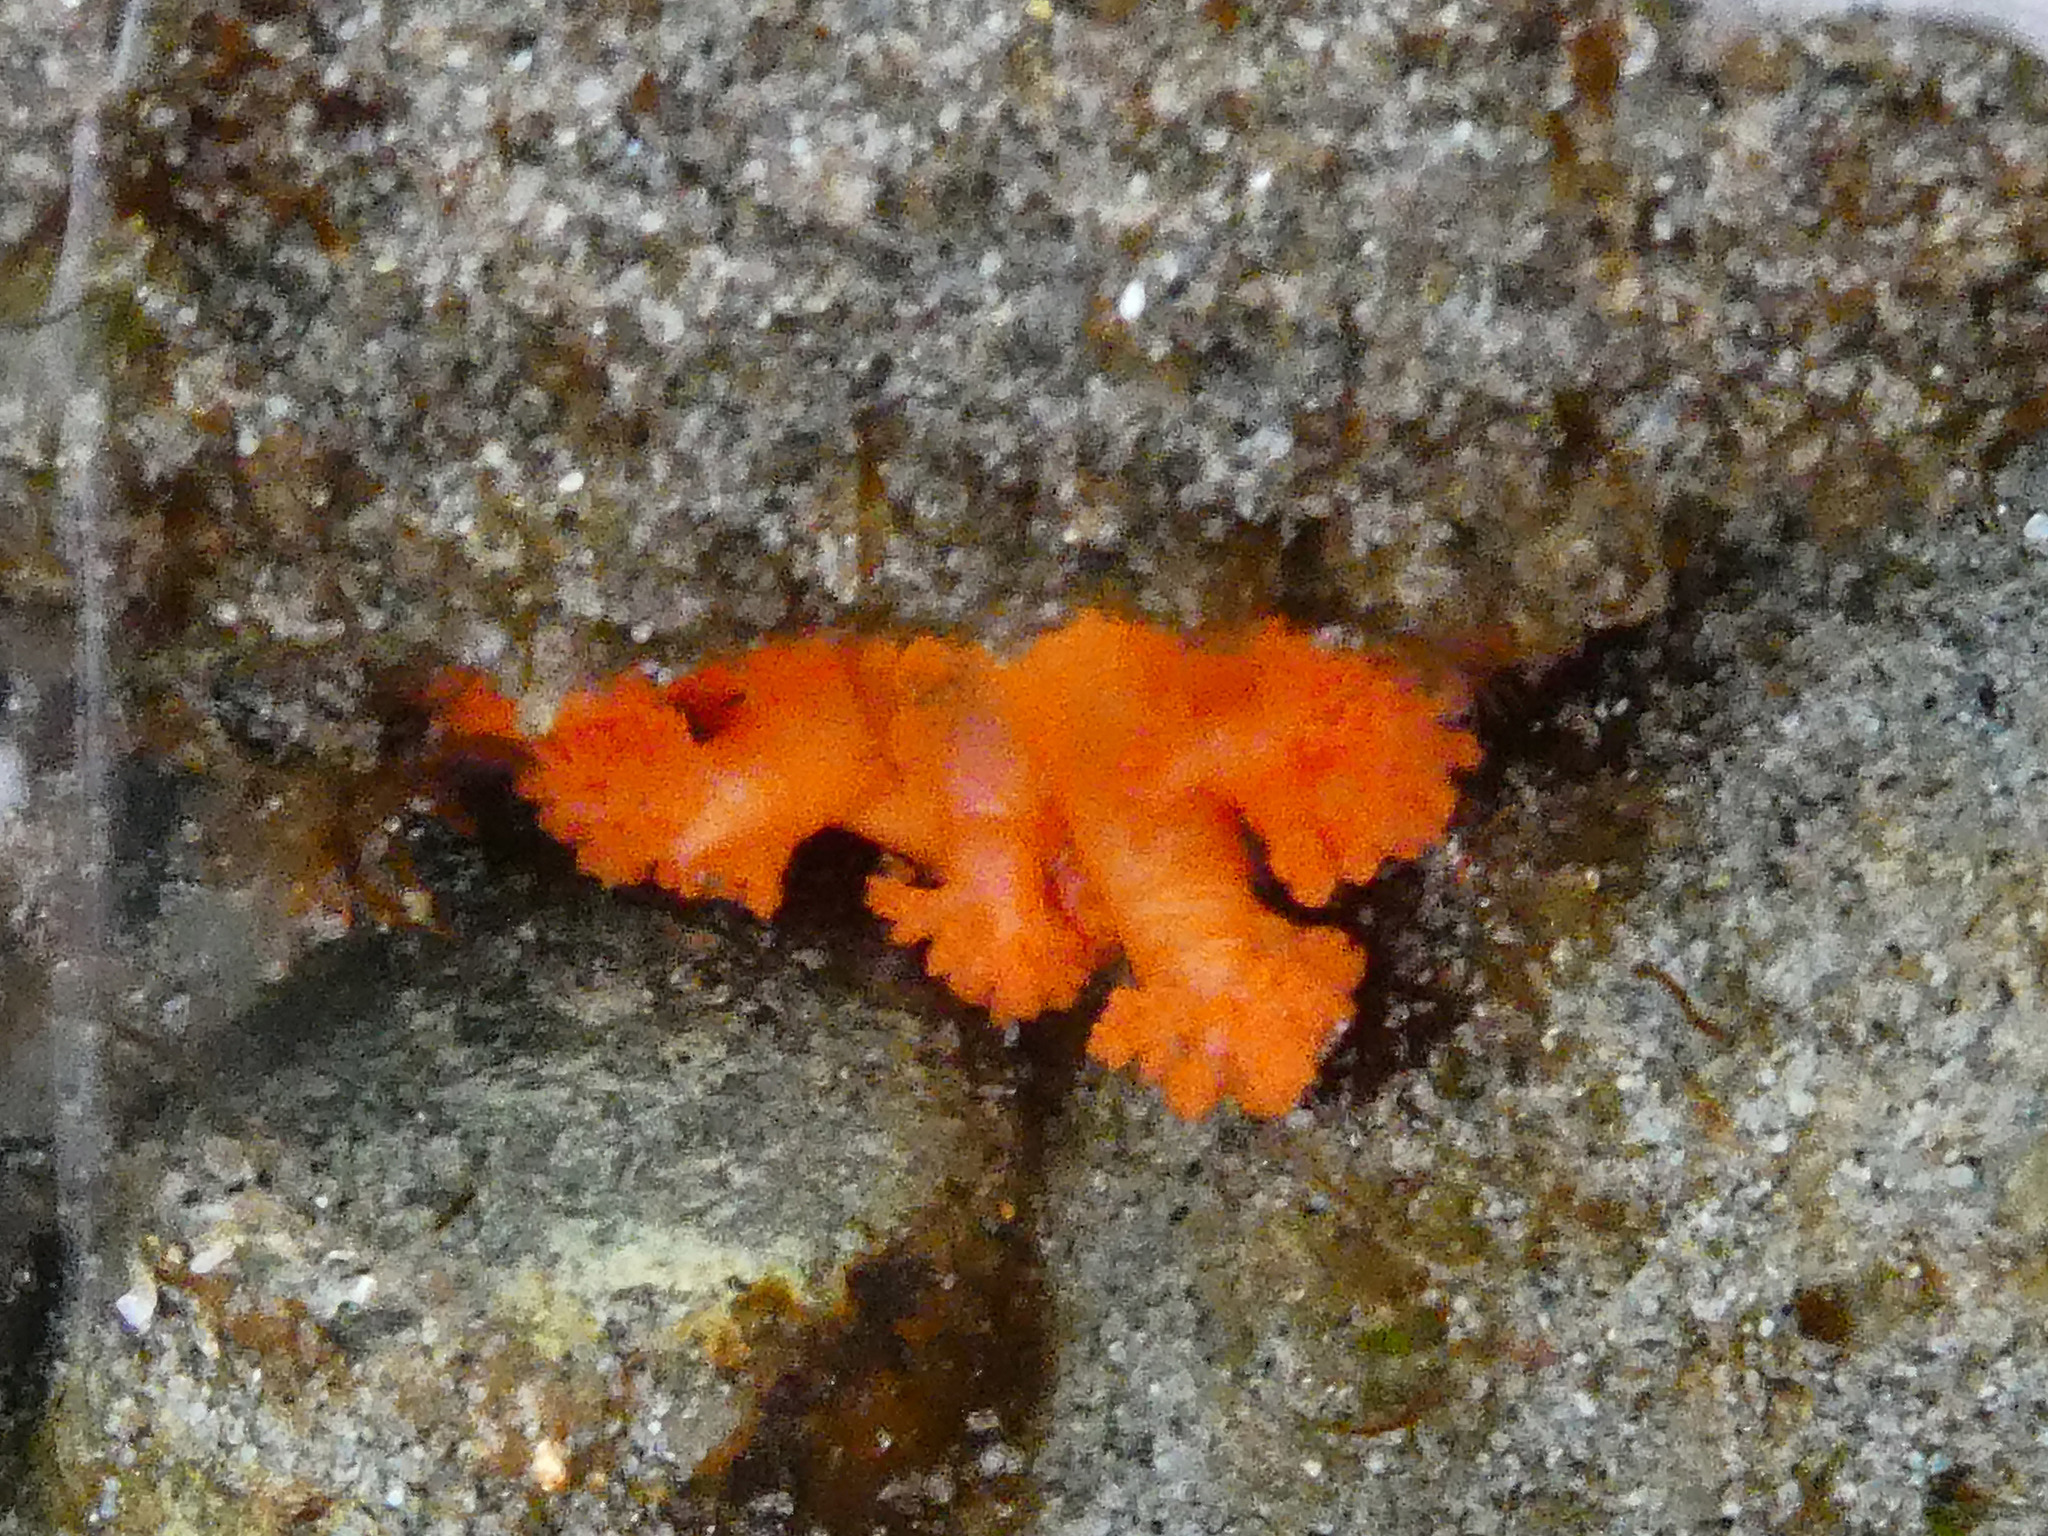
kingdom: Animalia
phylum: Echinodermata
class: Holothuroidea
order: Dendrochirotida
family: Cucumariidae
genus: Cucumaria
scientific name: Cucumaria miniata
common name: Orange sea cucumber
